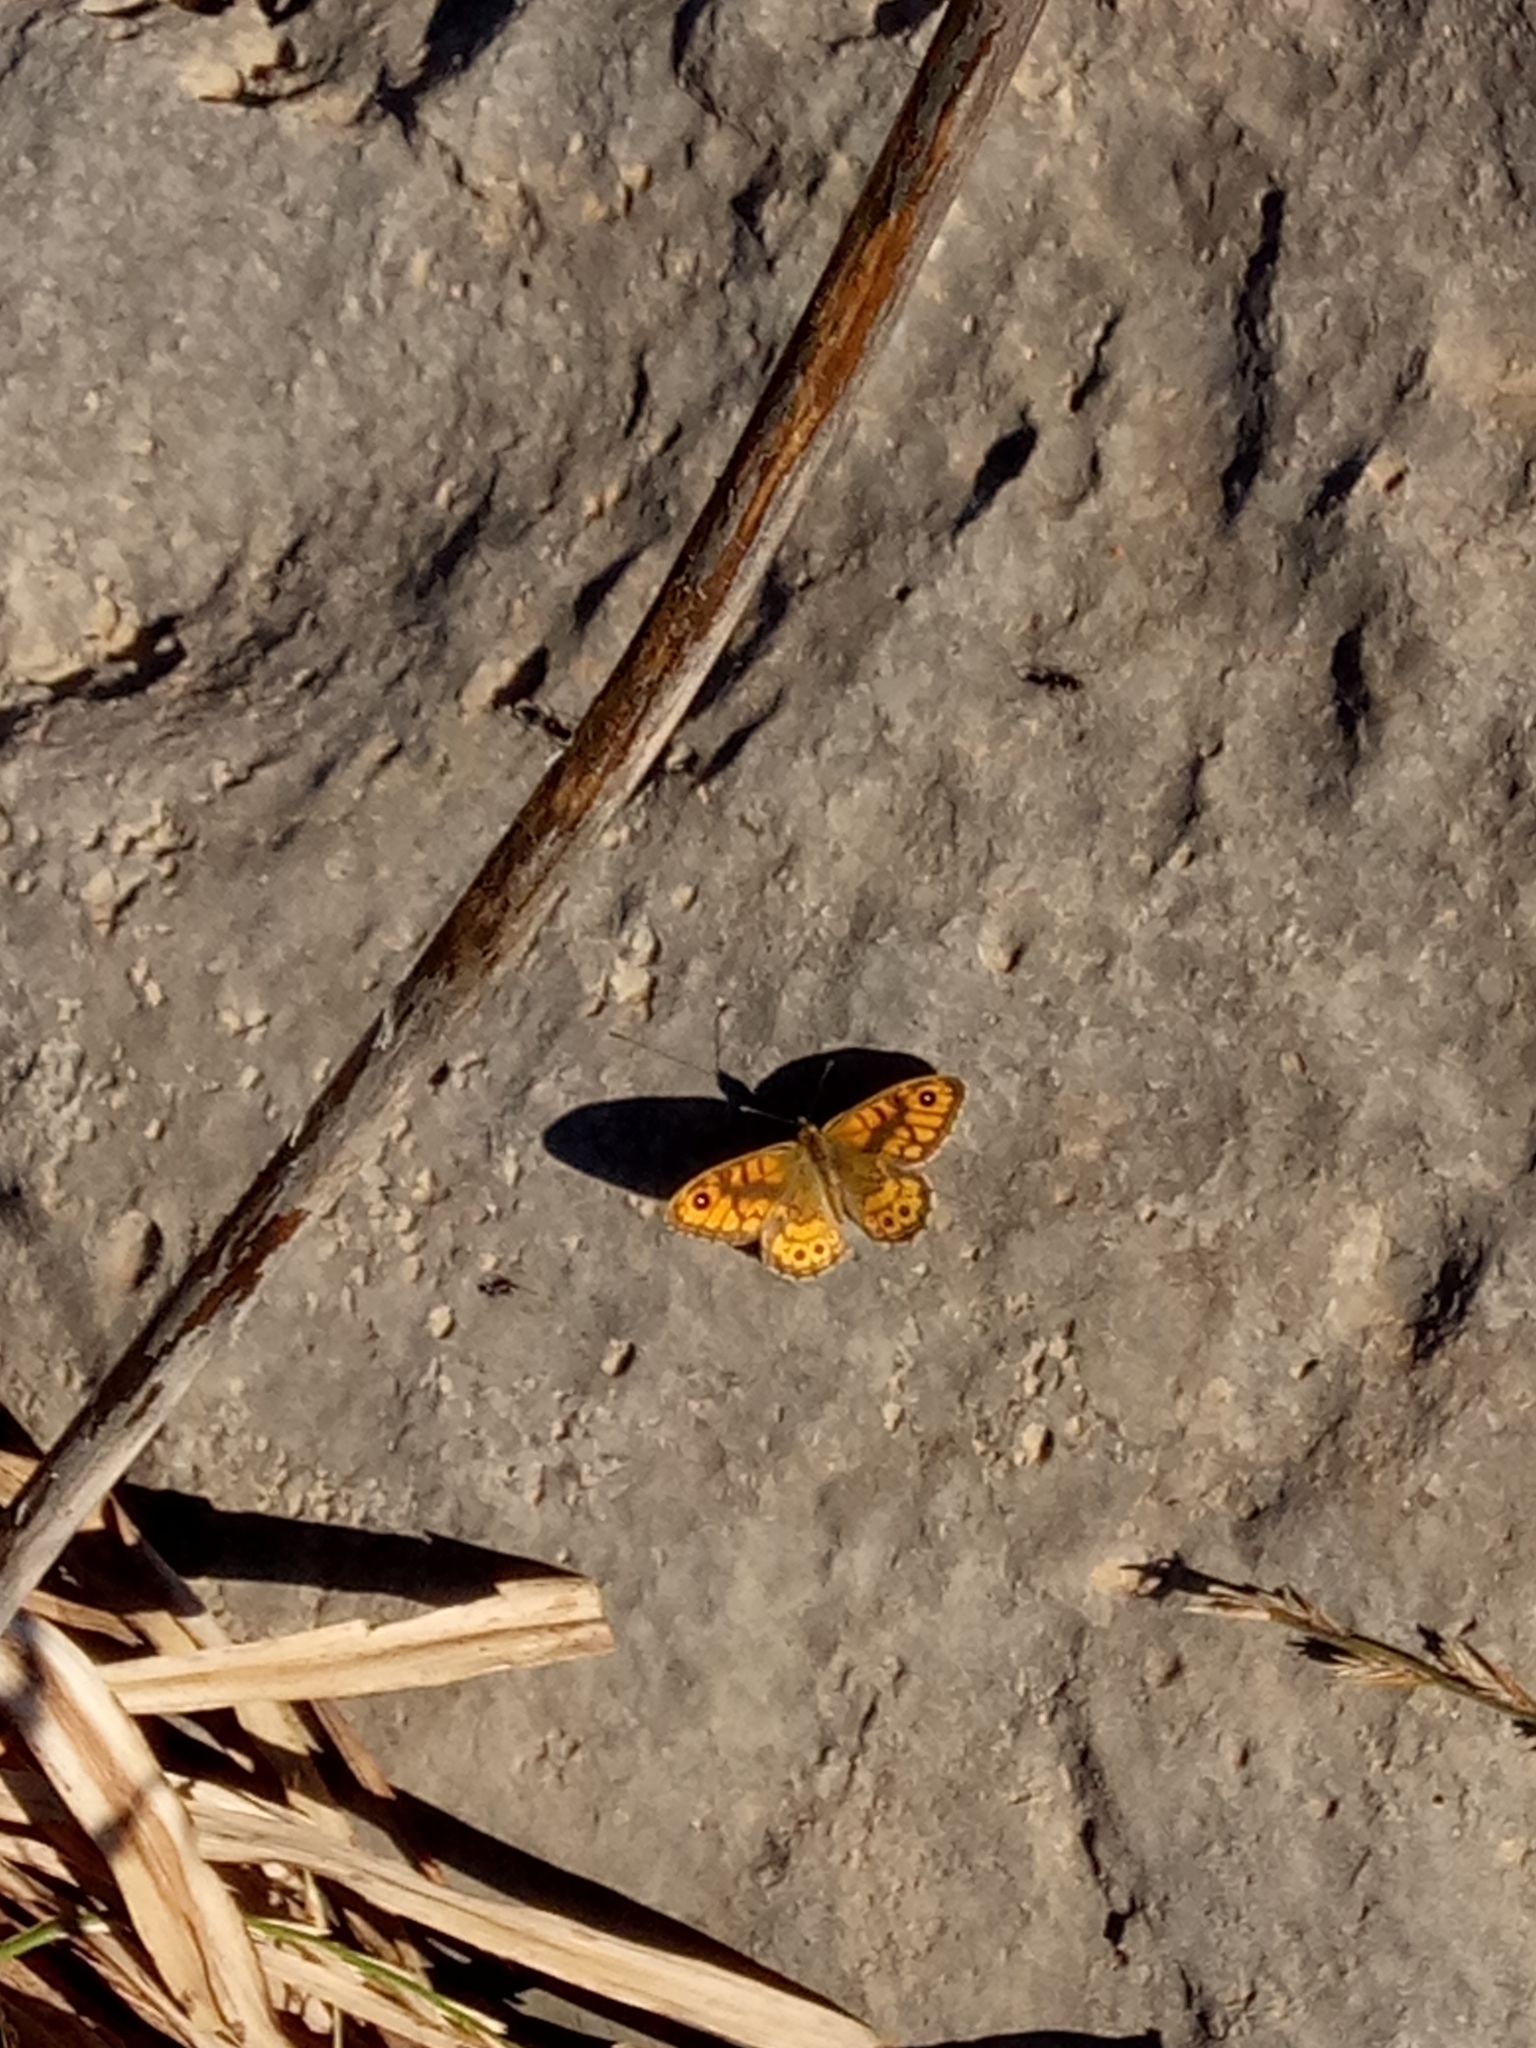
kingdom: Animalia
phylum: Arthropoda
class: Insecta
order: Lepidoptera
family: Nymphalidae
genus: Pararge
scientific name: Pararge Lasiommata megera
